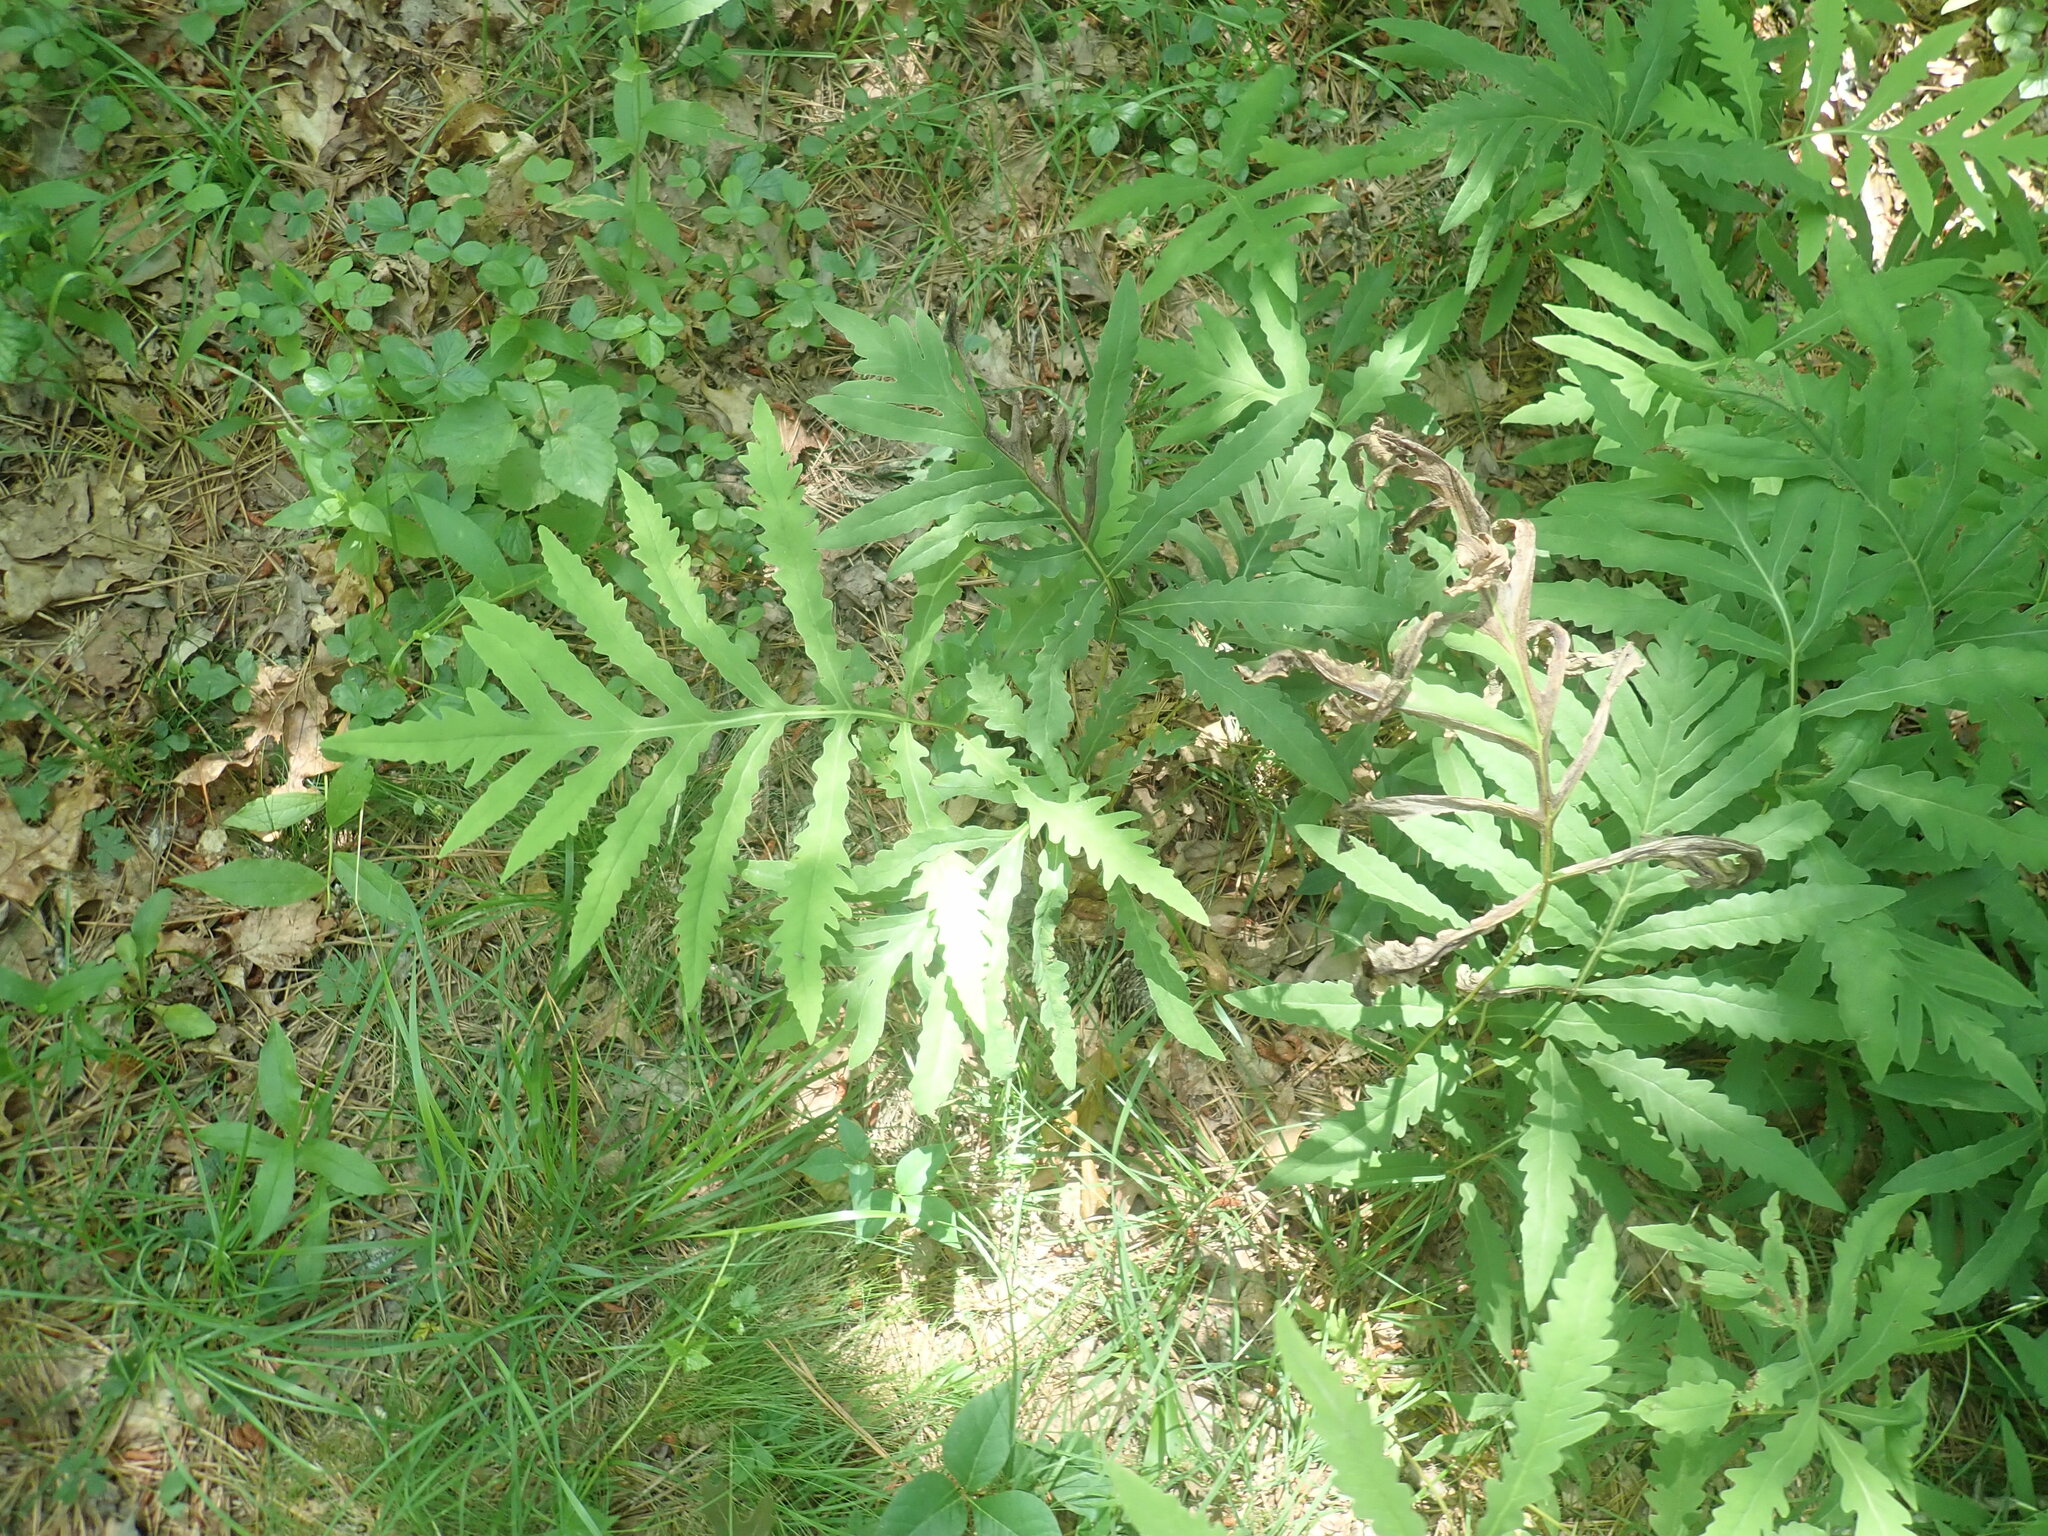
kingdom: Plantae
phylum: Tracheophyta
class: Polypodiopsida
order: Polypodiales
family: Onocleaceae
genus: Onoclea
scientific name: Onoclea sensibilis
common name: Sensitive fern
